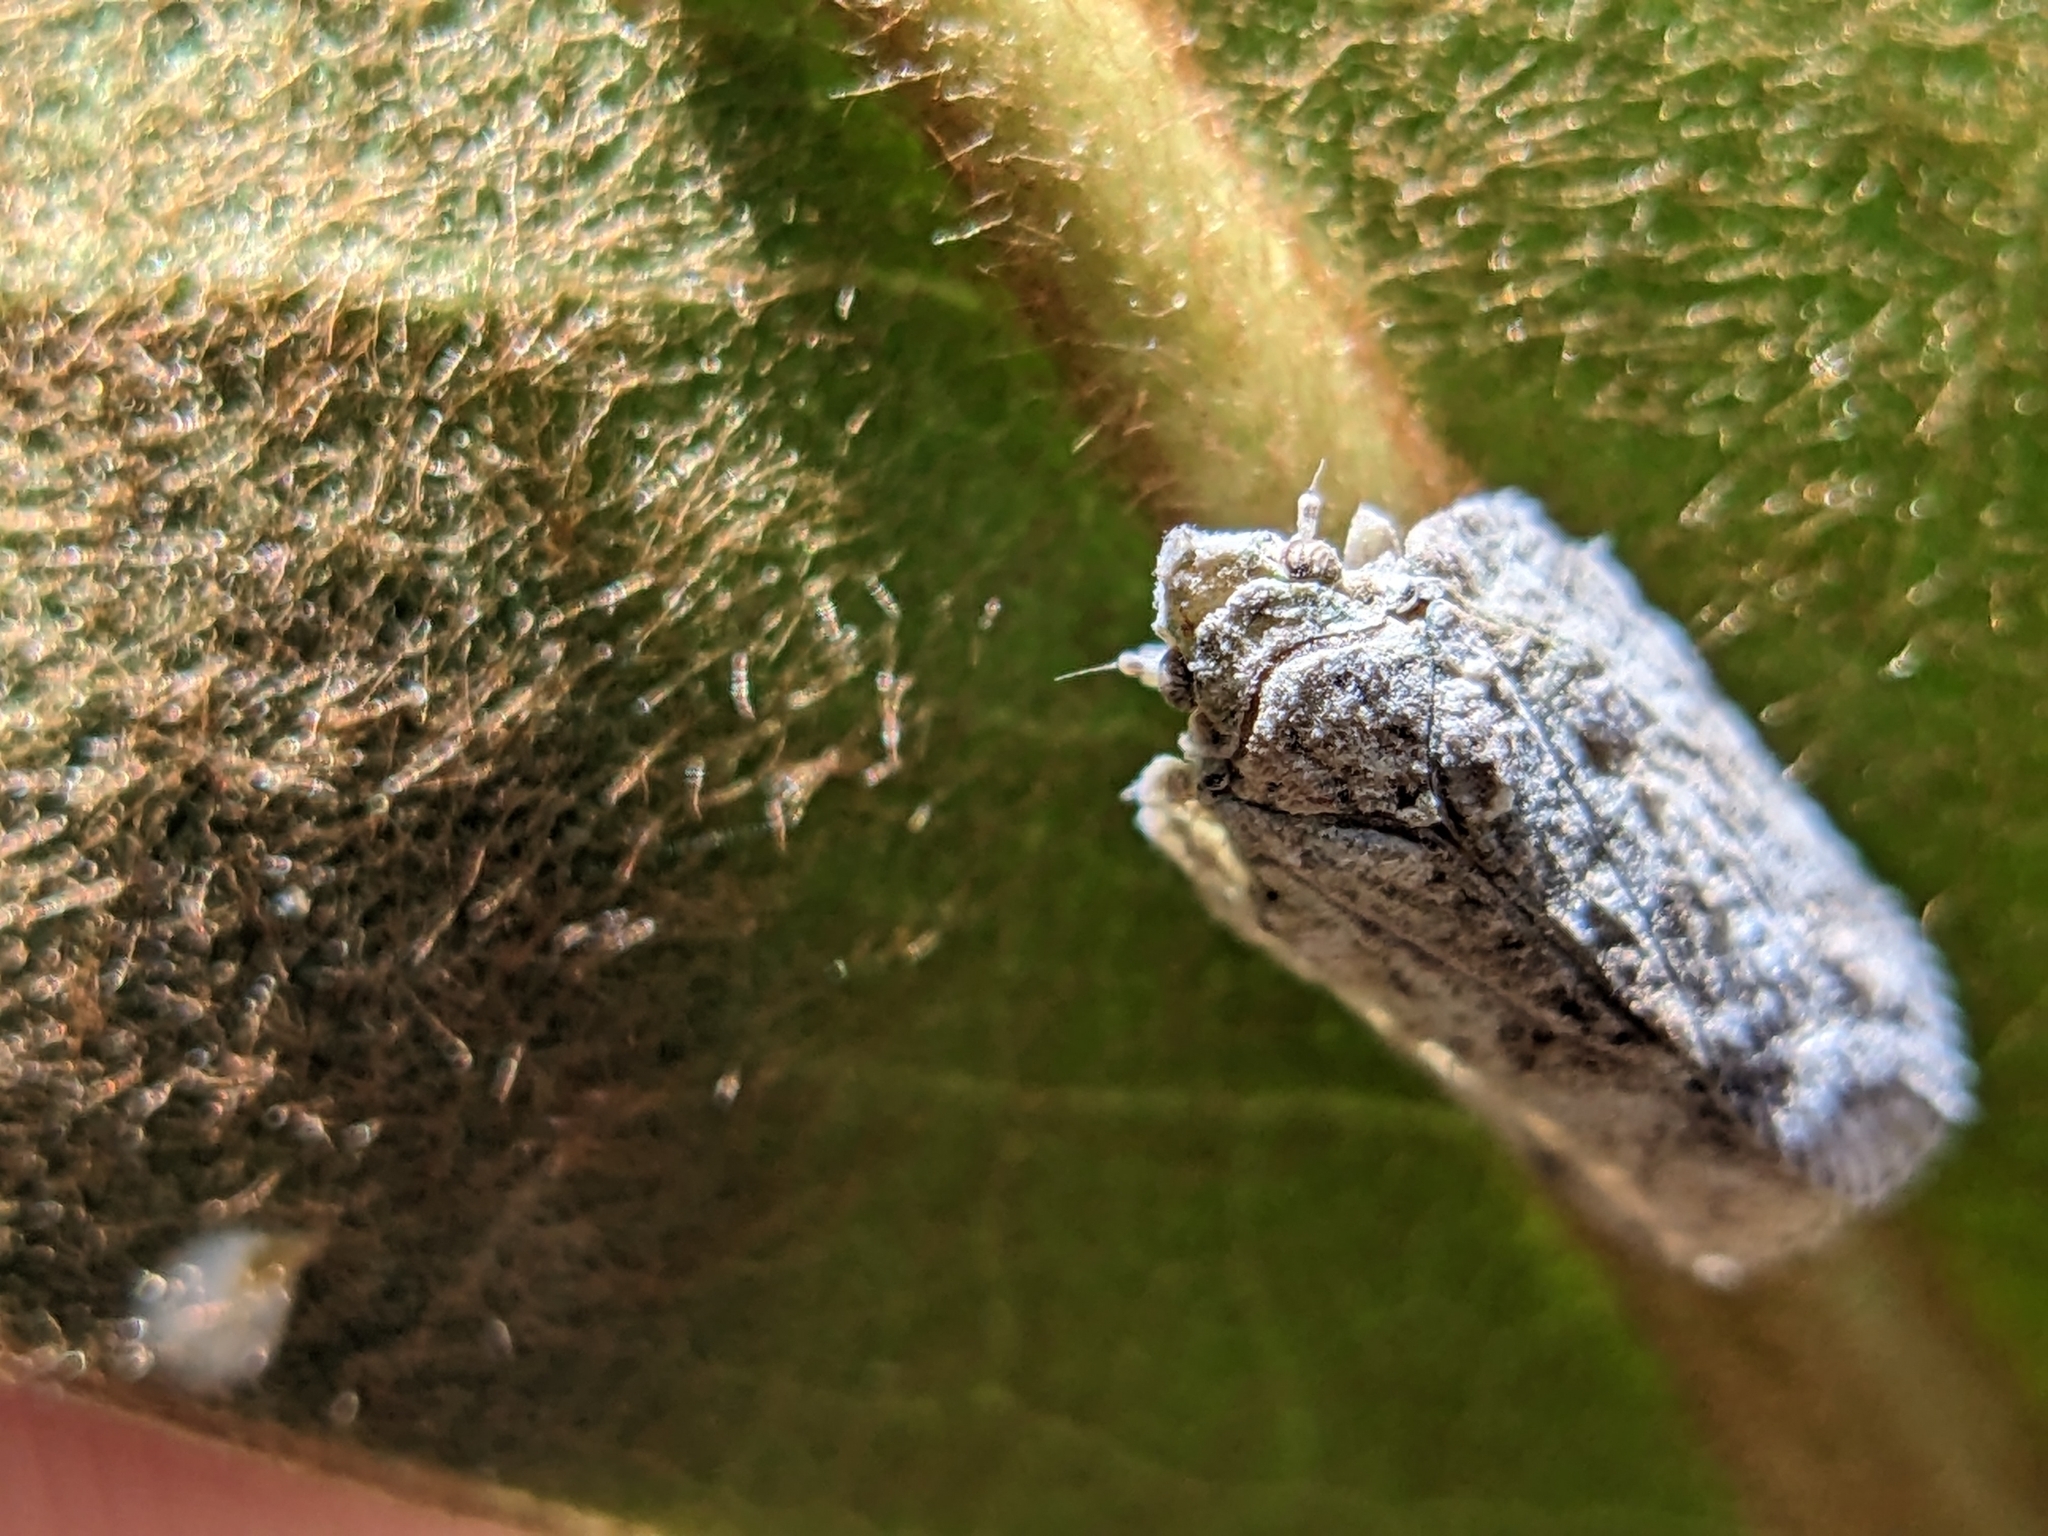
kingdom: Animalia
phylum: Arthropoda
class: Insecta
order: Hemiptera
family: Flatidae
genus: Flatoidinus
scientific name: Flatoidinus punctatus
